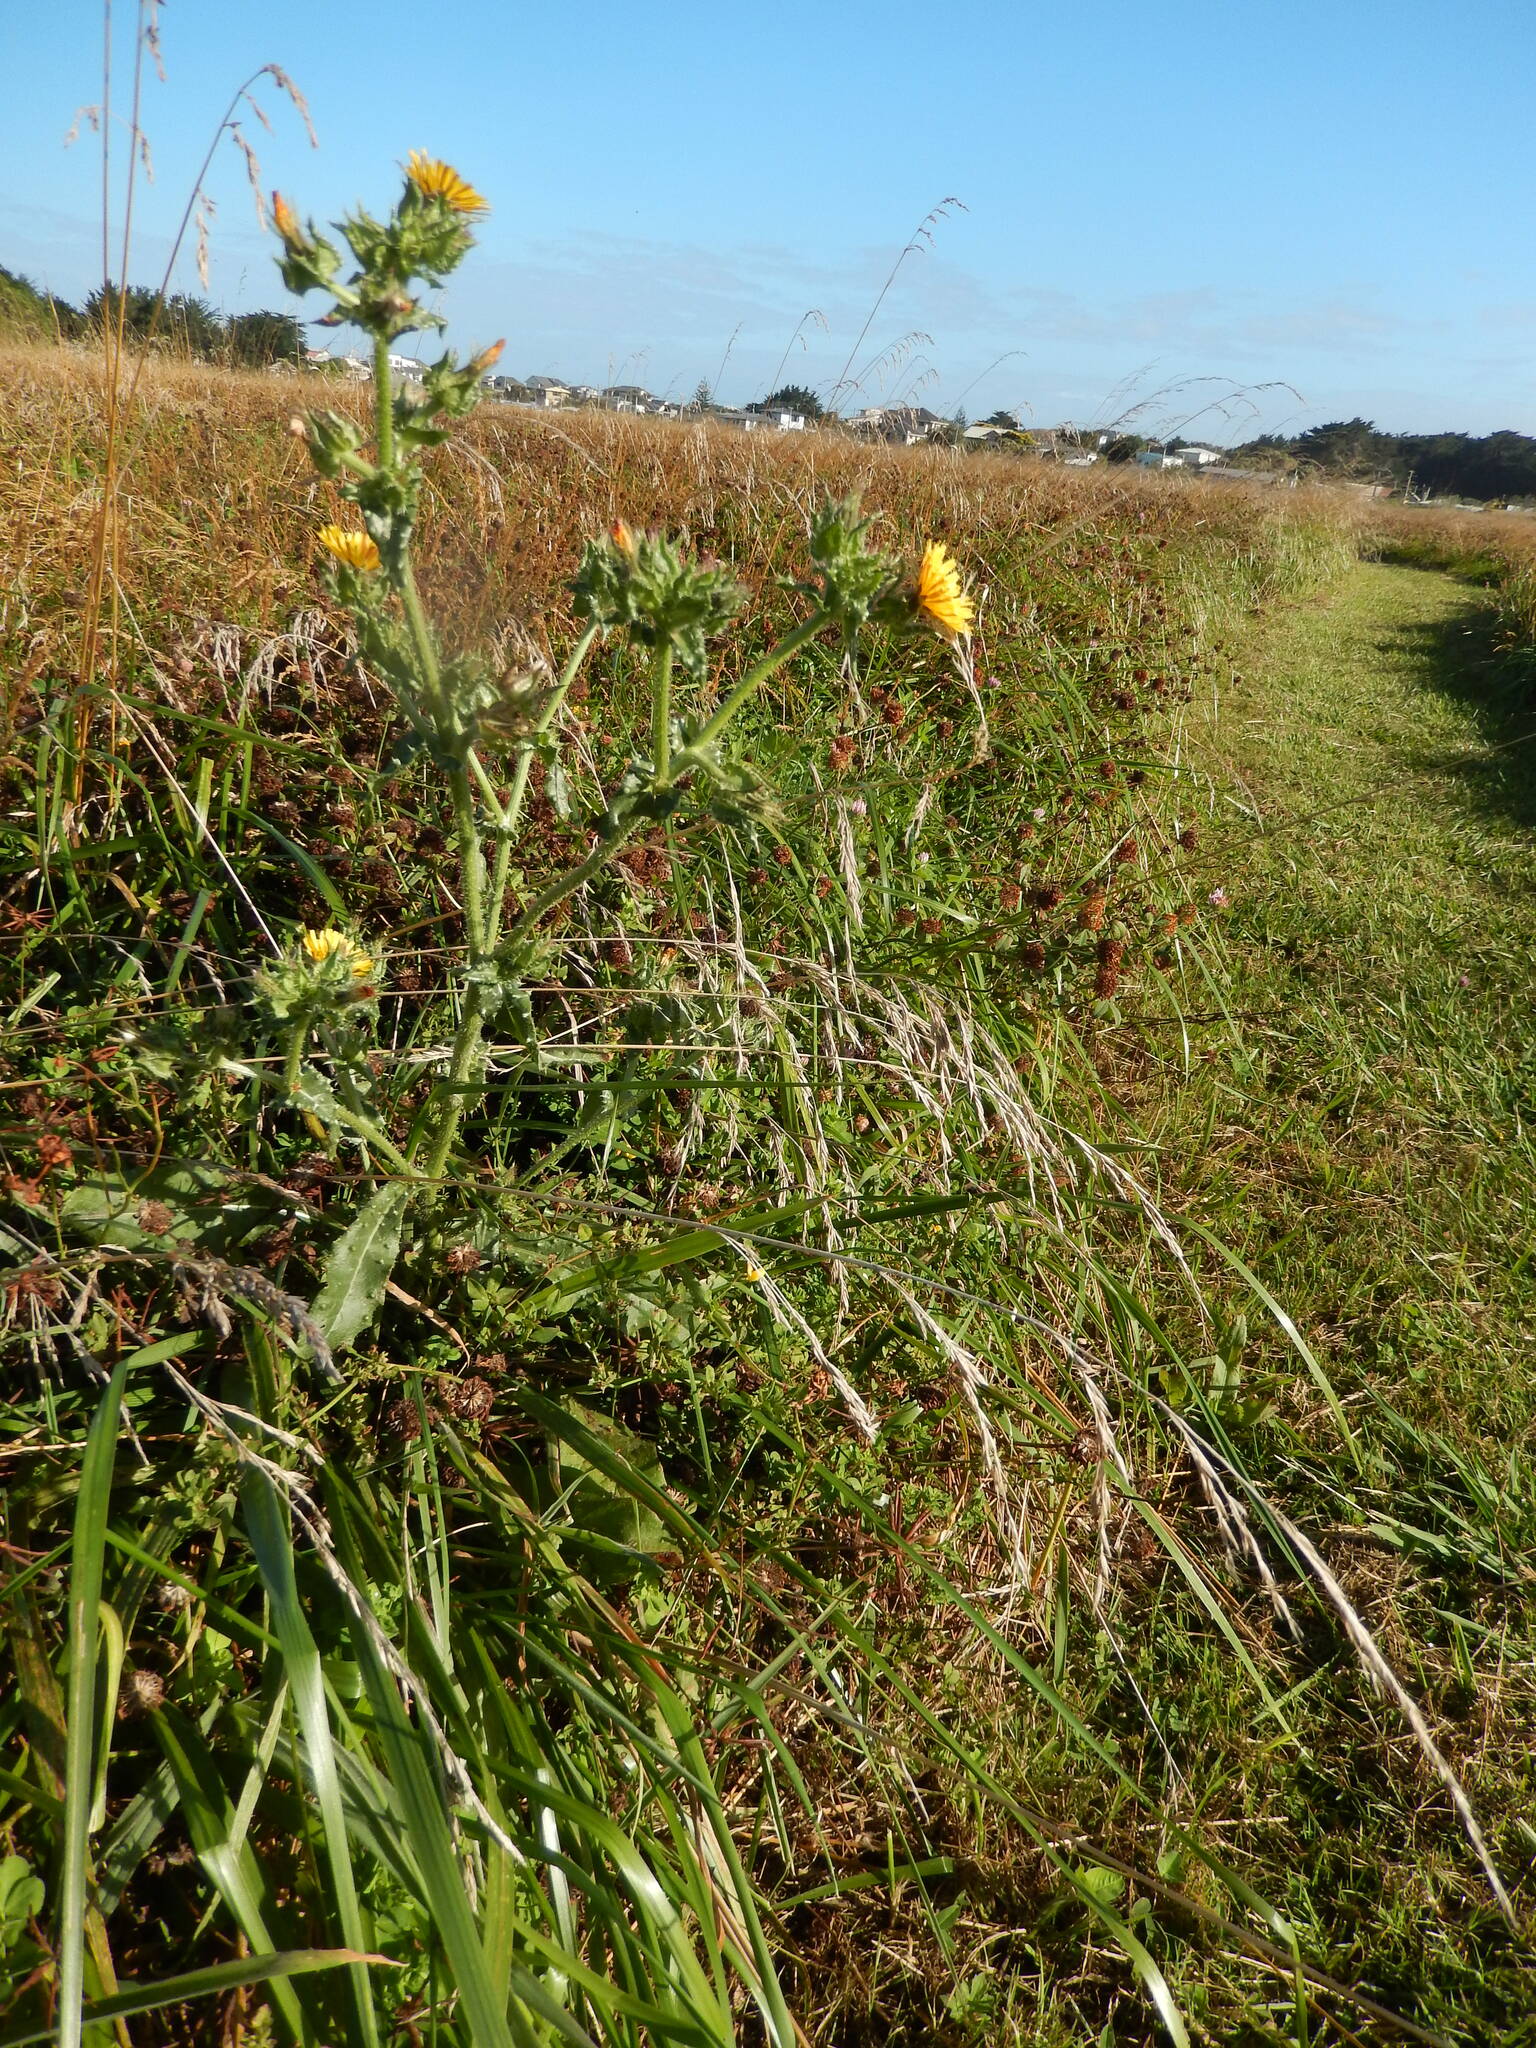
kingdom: Plantae
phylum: Tracheophyta
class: Magnoliopsida
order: Asterales
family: Asteraceae
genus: Helminthotheca
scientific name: Helminthotheca echioides
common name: Ox-tongue
